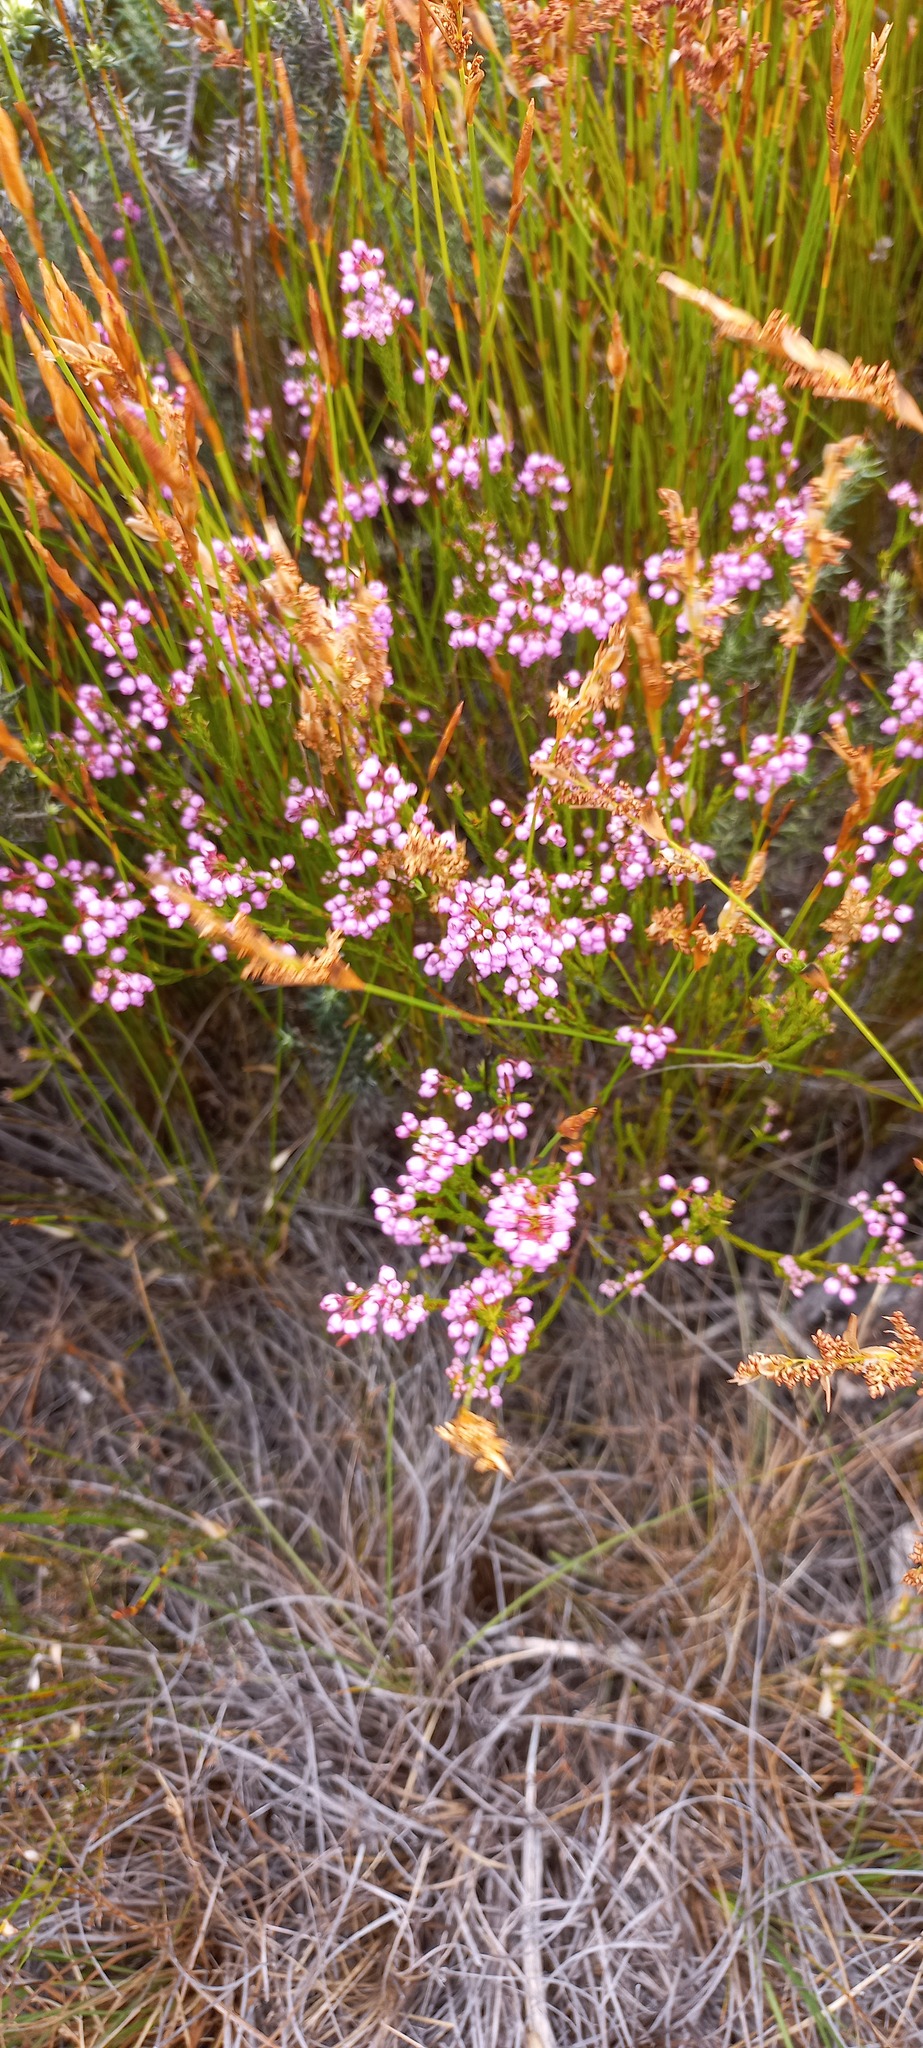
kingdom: Plantae
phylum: Tracheophyta
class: Magnoliopsida
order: Ericales
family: Ericaceae
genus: Erica
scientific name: Erica laeta
